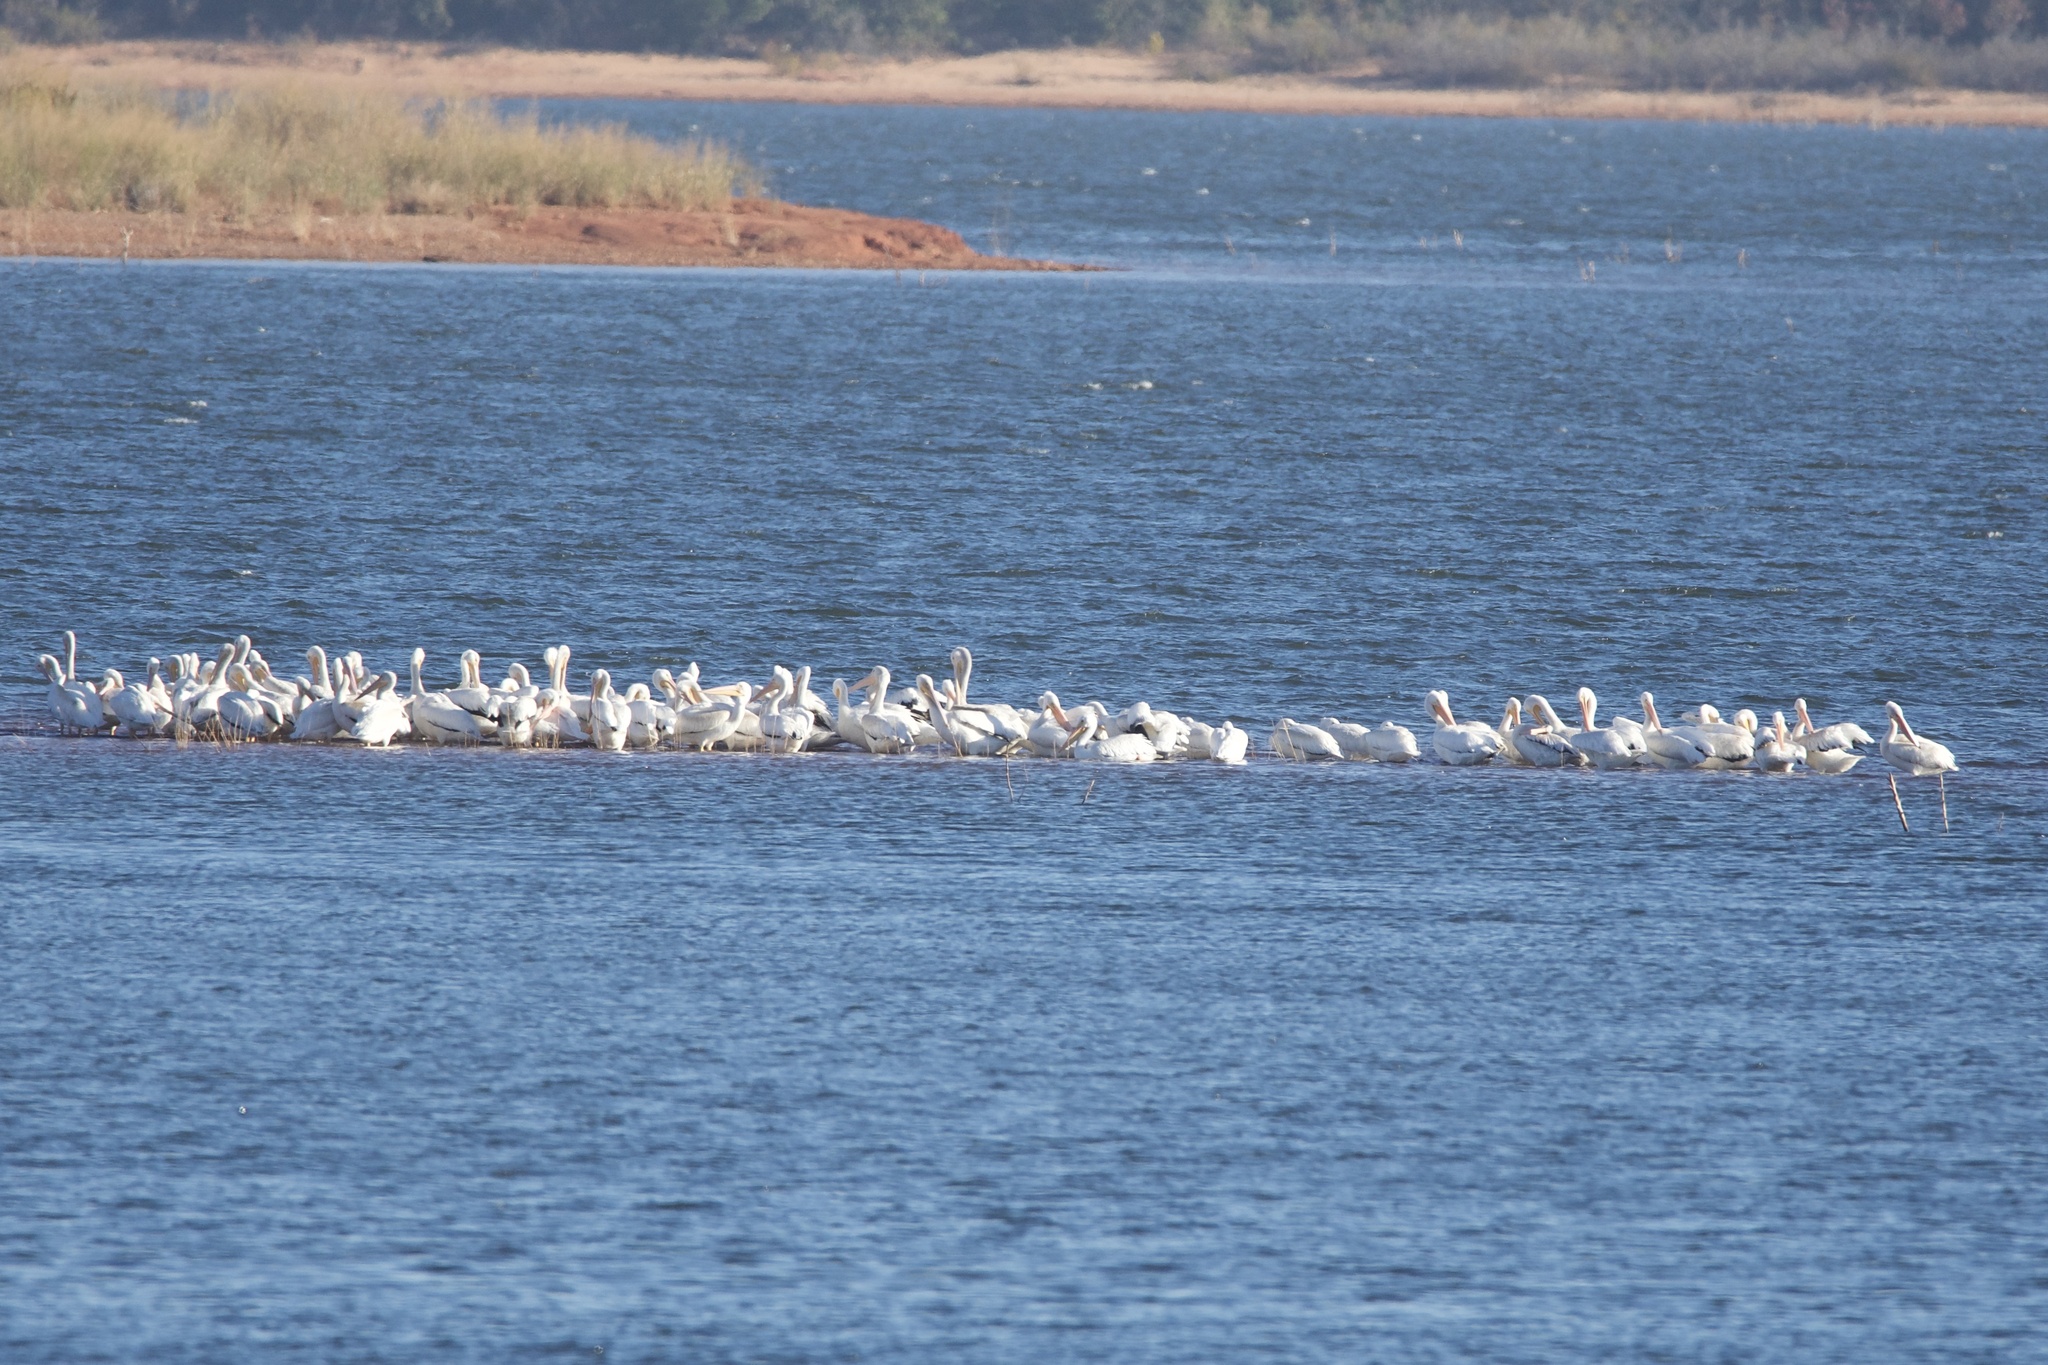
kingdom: Animalia
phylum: Chordata
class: Aves
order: Pelecaniformes
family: Pelecanidae
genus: Pelecanus
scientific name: Pelecanus erythrorhynchos
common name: American white pelican
